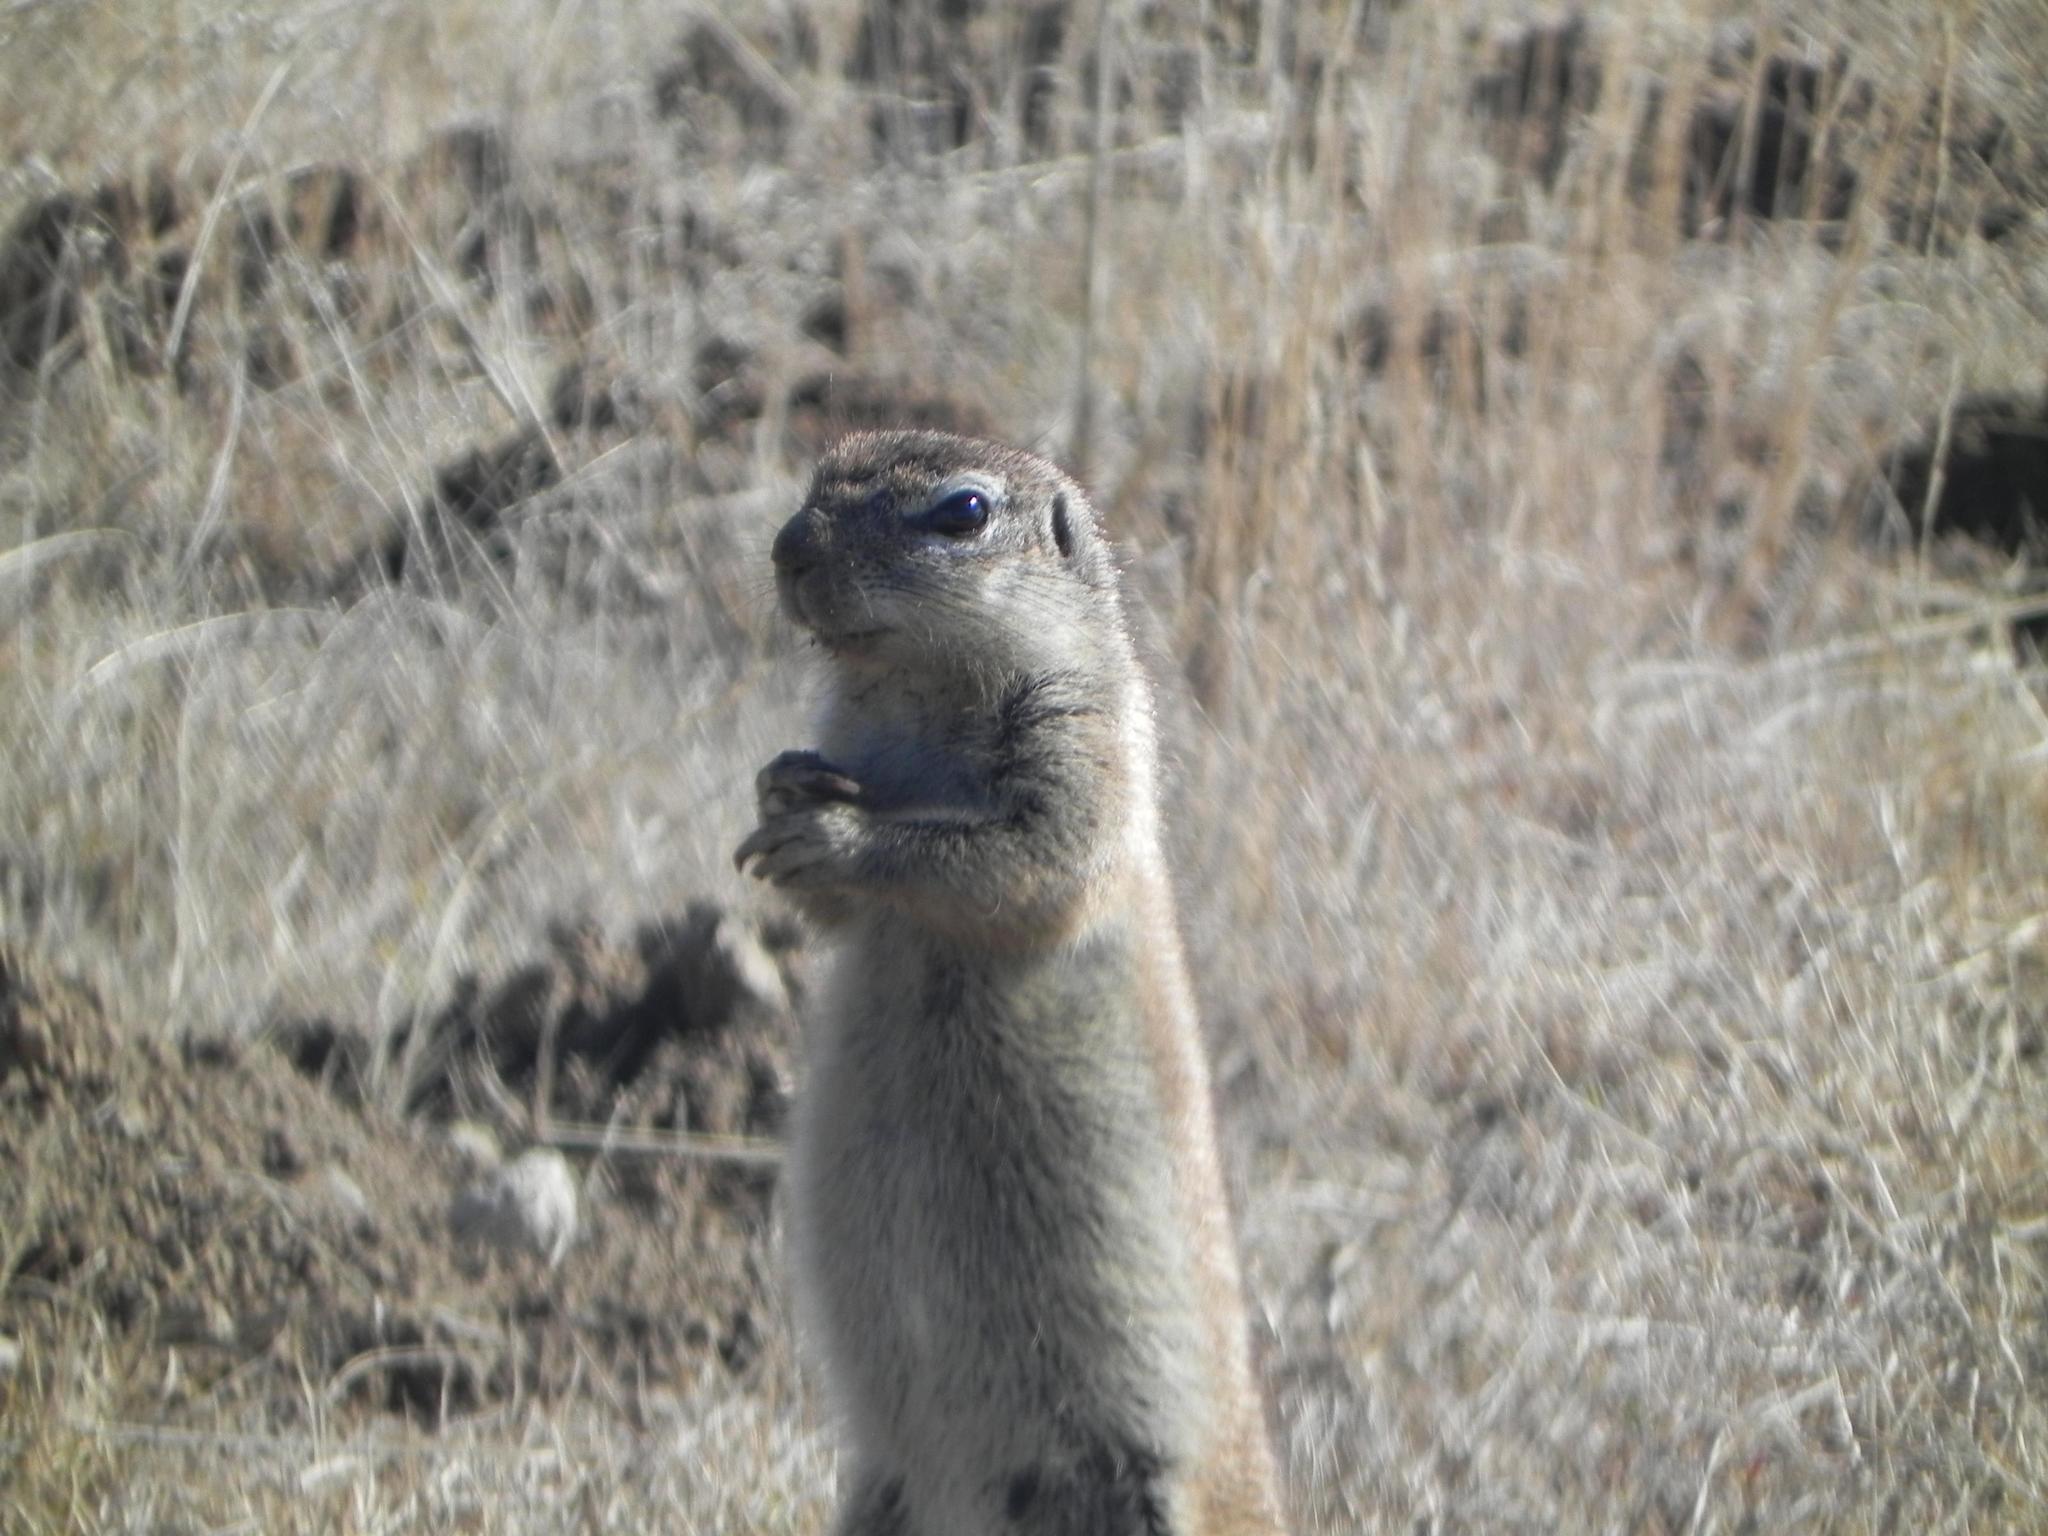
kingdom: Animalia
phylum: Chordata
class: Mammalia
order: Rodentia
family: Sciuridae
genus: Xerus
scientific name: Xerus inauris
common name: South african ground squirrel
